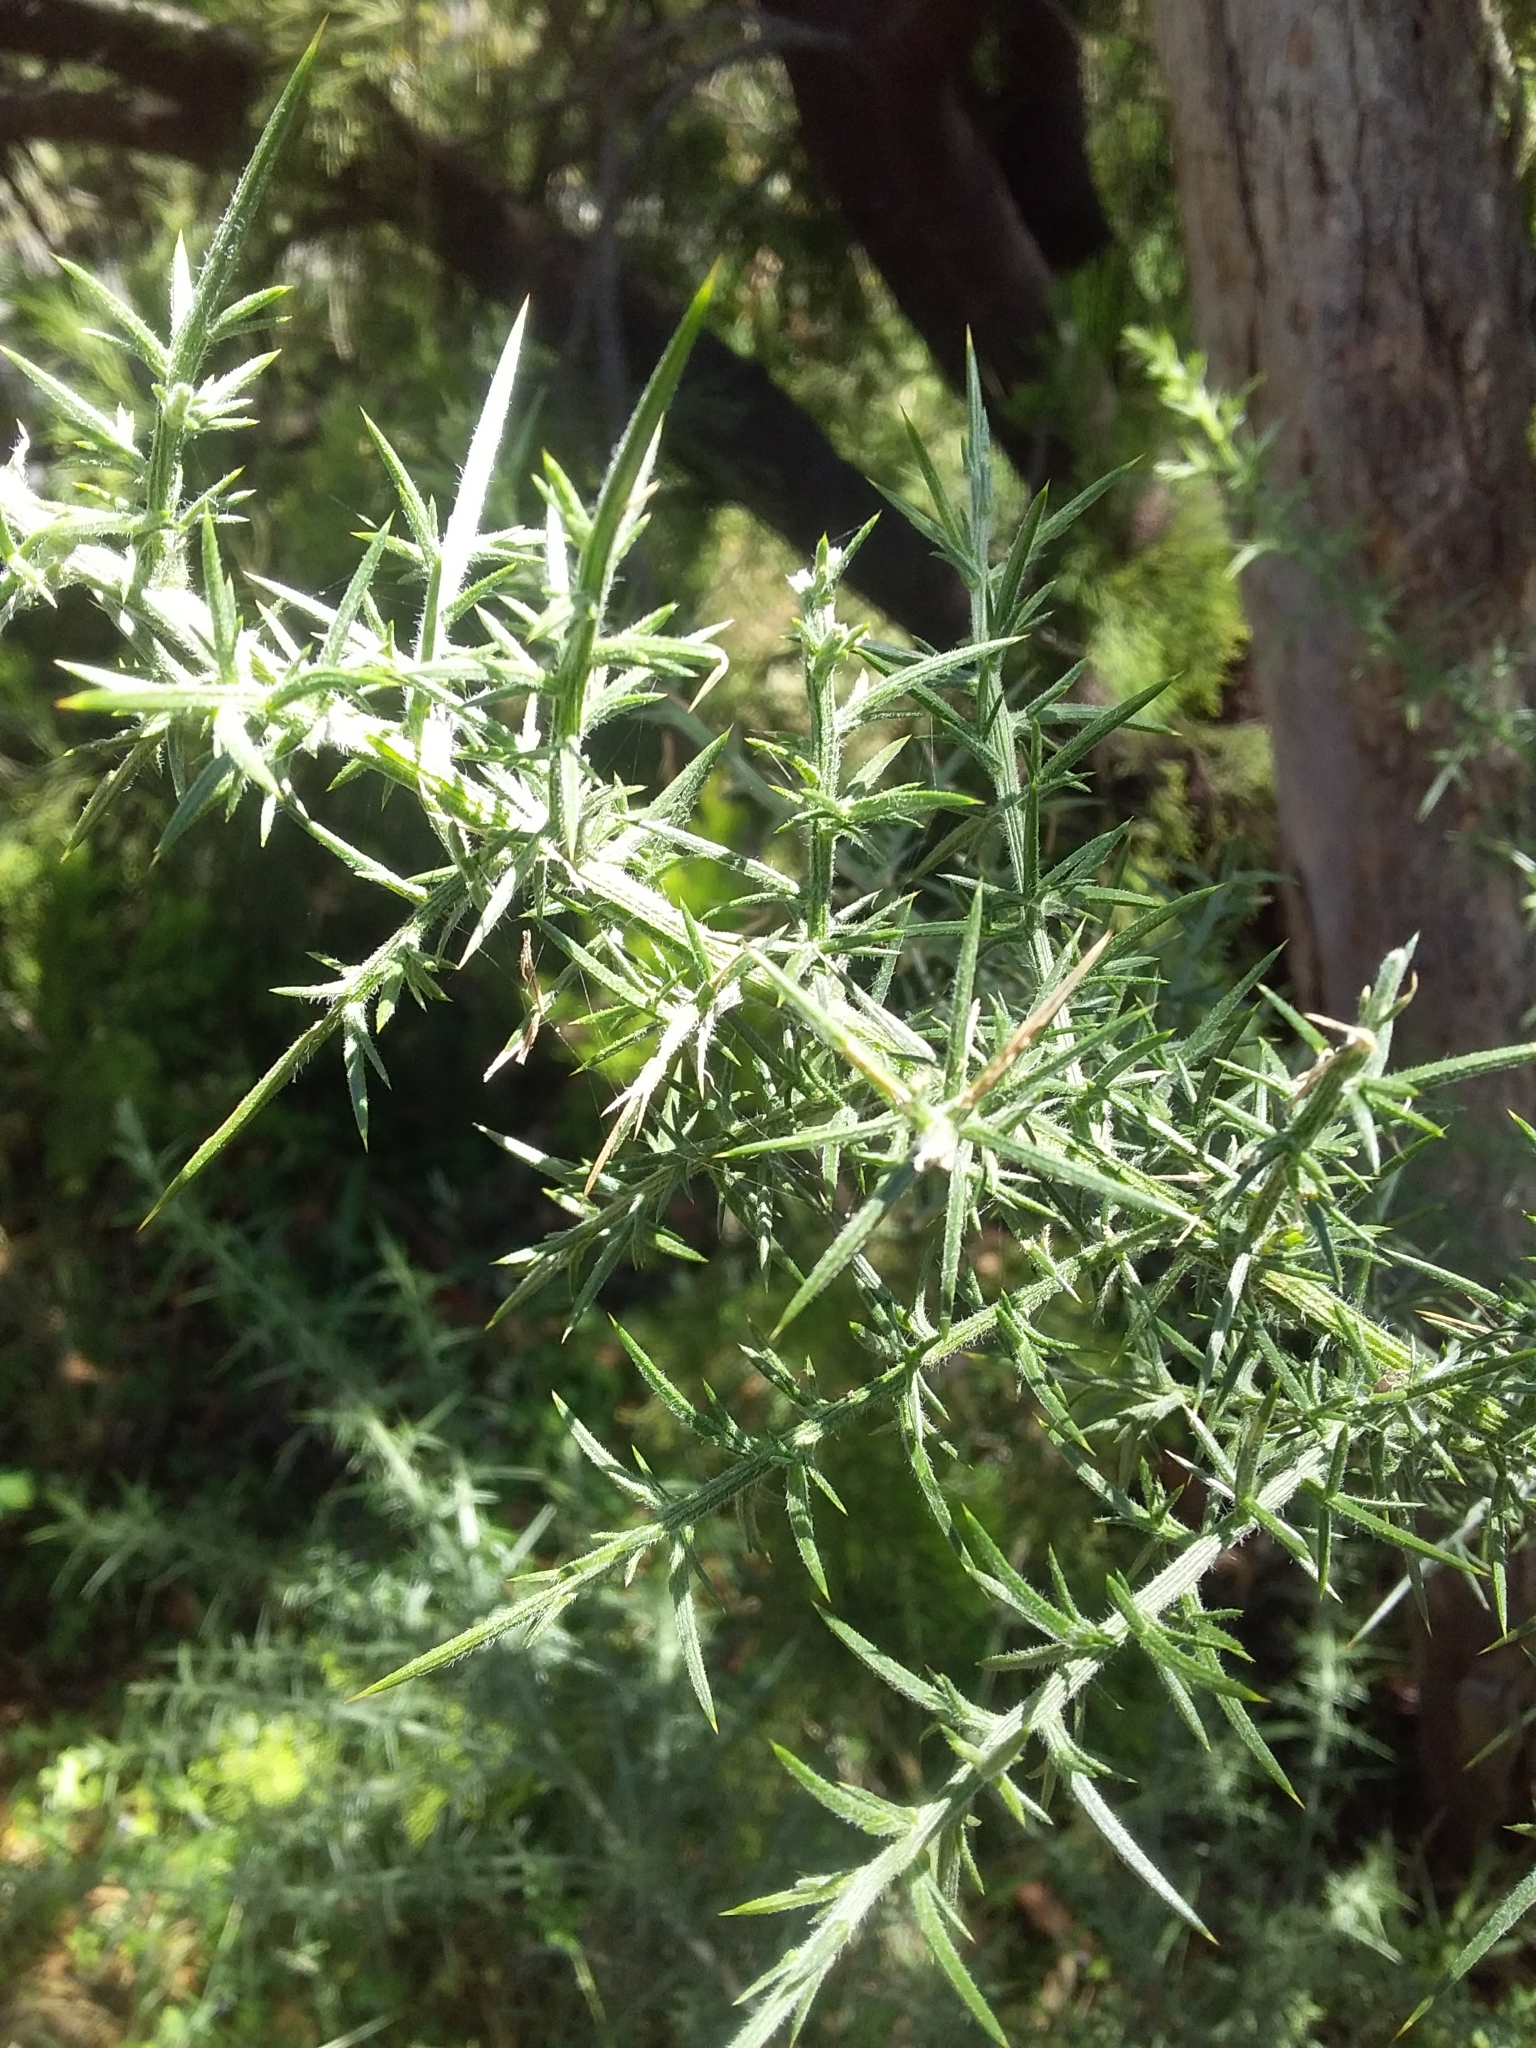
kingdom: Plantae
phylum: Tracheophyta
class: Magnoliopsida
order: Fabales
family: Fabaceae
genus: Ulex
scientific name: Ulex europaeus
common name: Common gorse
